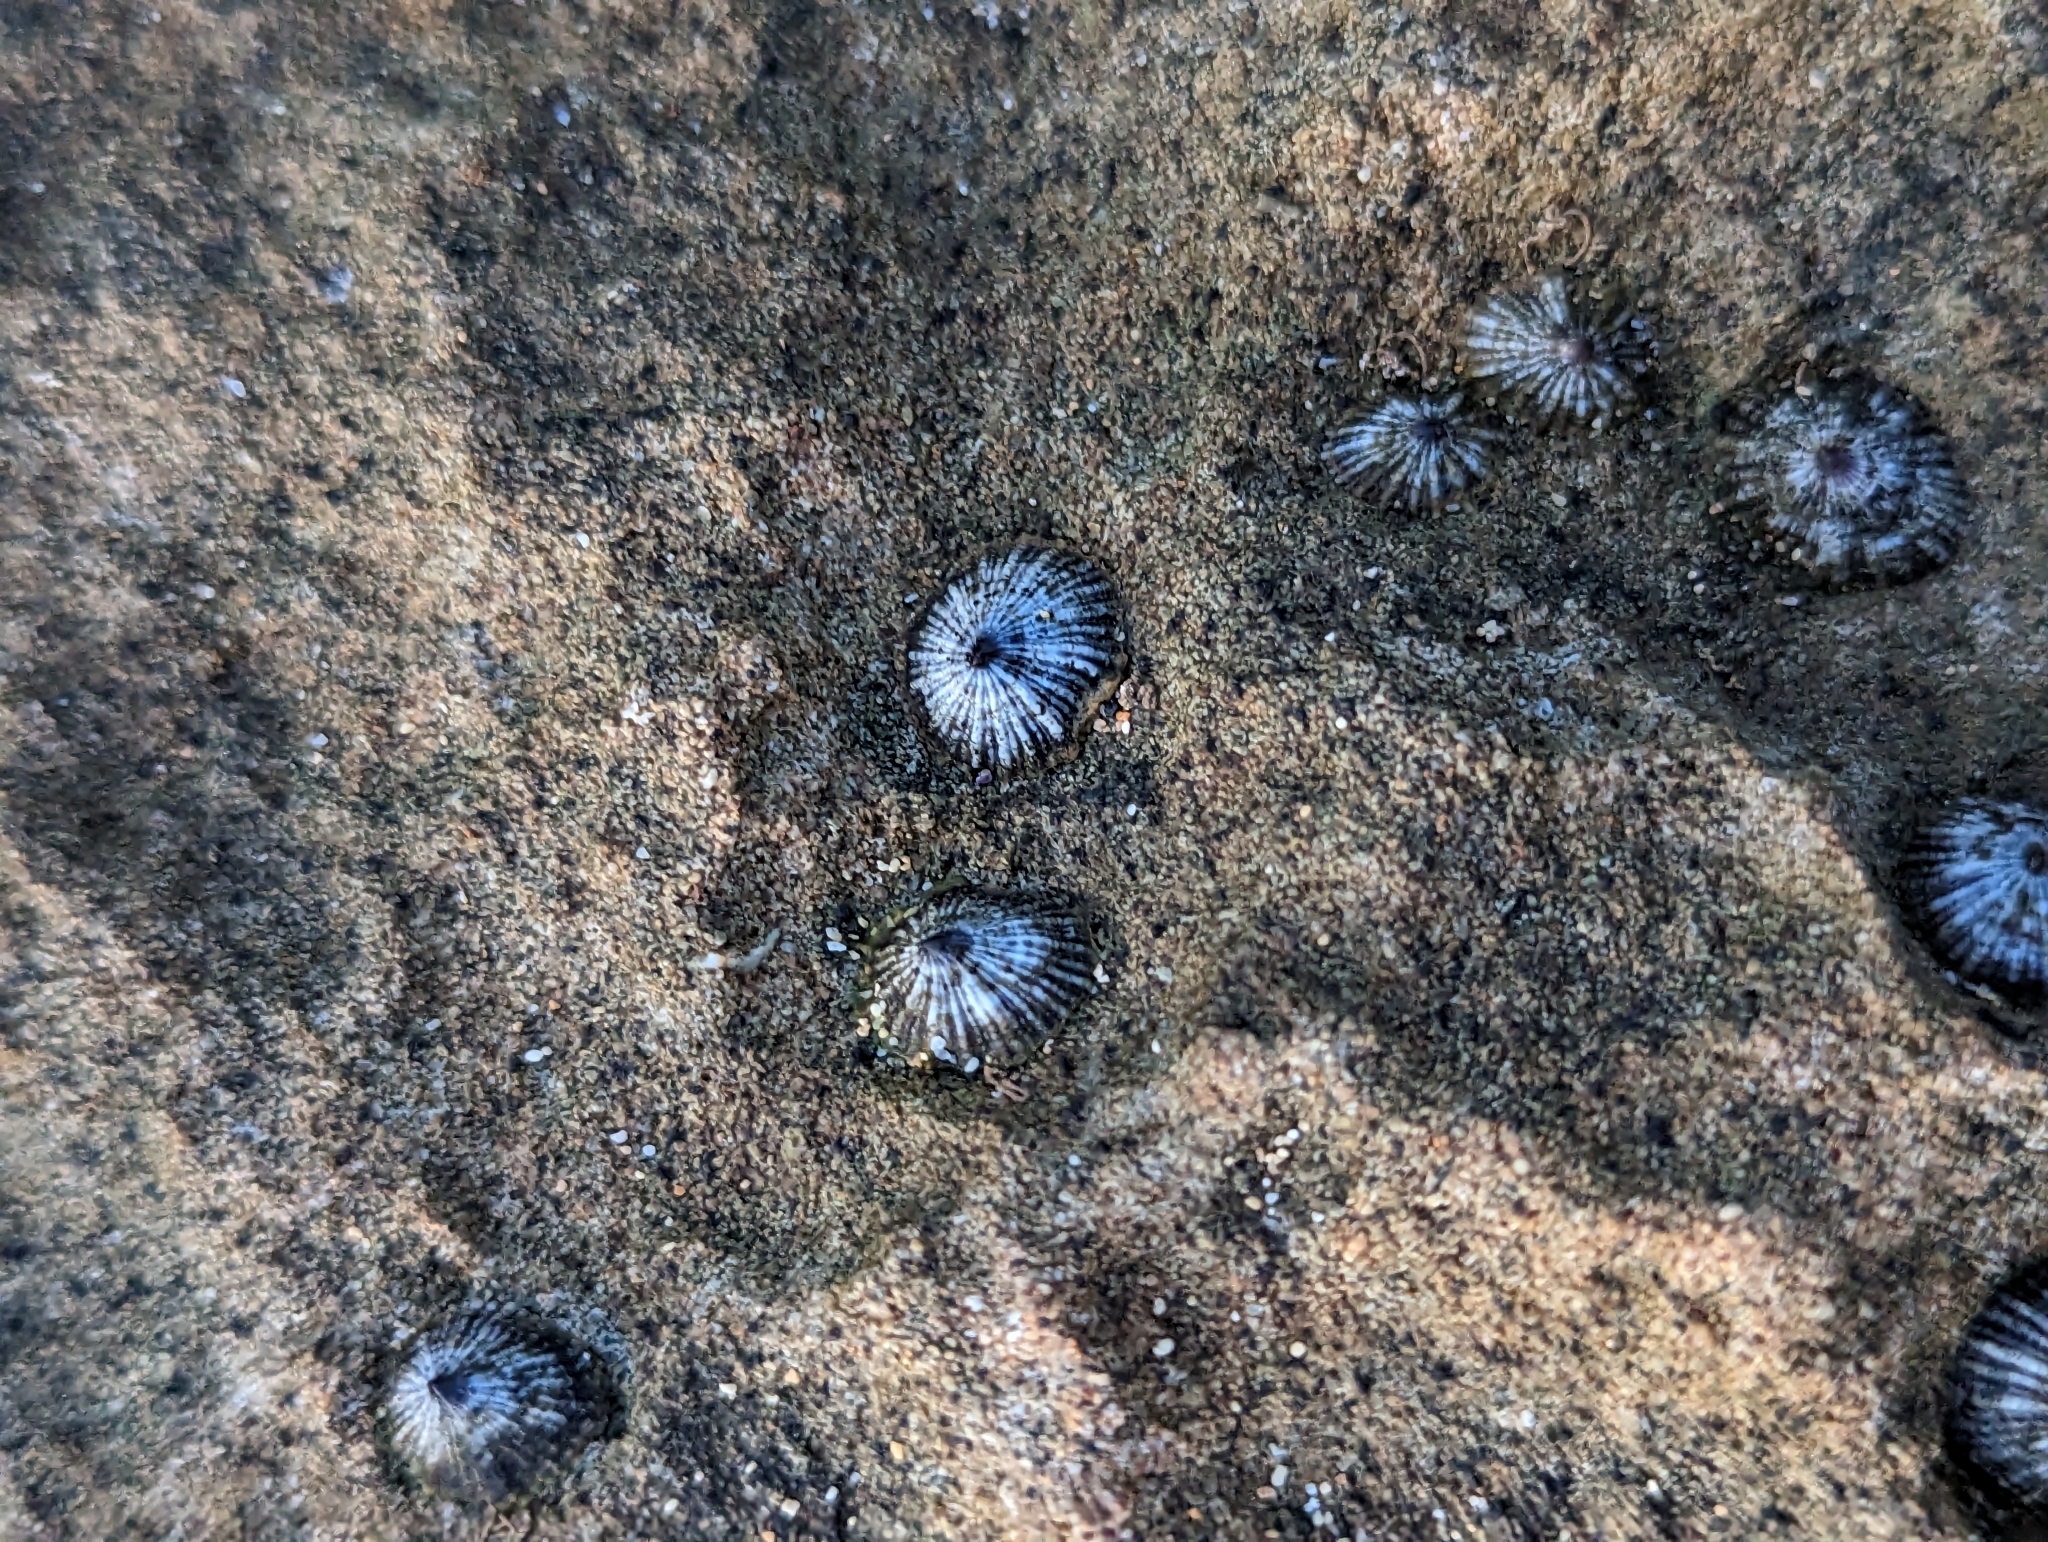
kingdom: Animalia
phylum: Mollusca
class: Gastropoda
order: Siphonariida
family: Siphonariidae
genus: Siphonaria
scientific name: Siphonaria normalis
